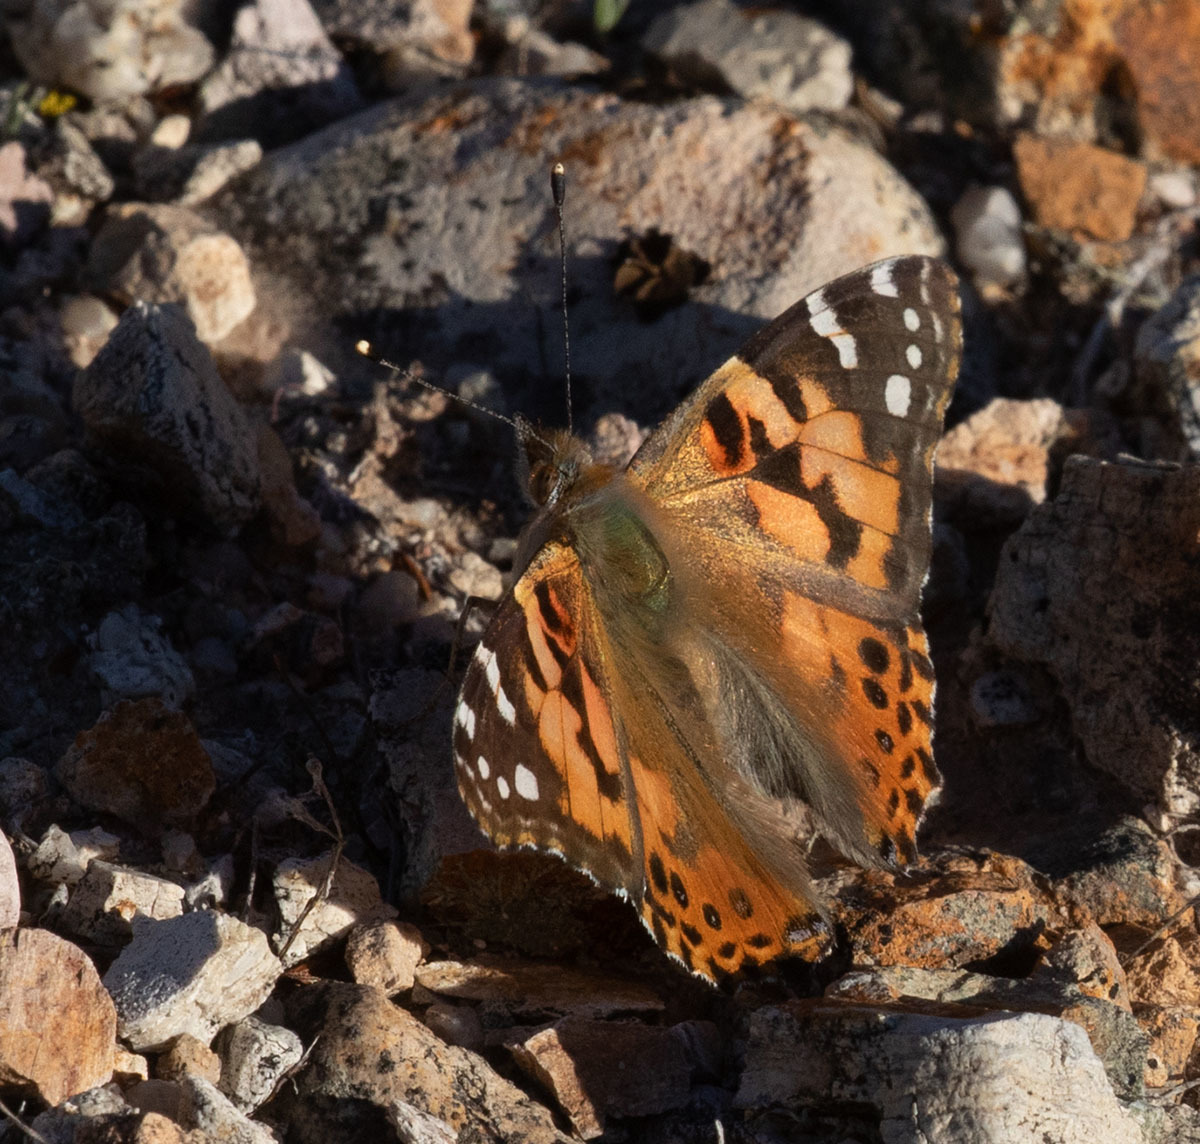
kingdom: Animalia
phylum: Arthropoda
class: Insecta
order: Lepidoptera
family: Nymphalidae
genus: Vanessa
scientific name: Vanessa cardui
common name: Painted lady
